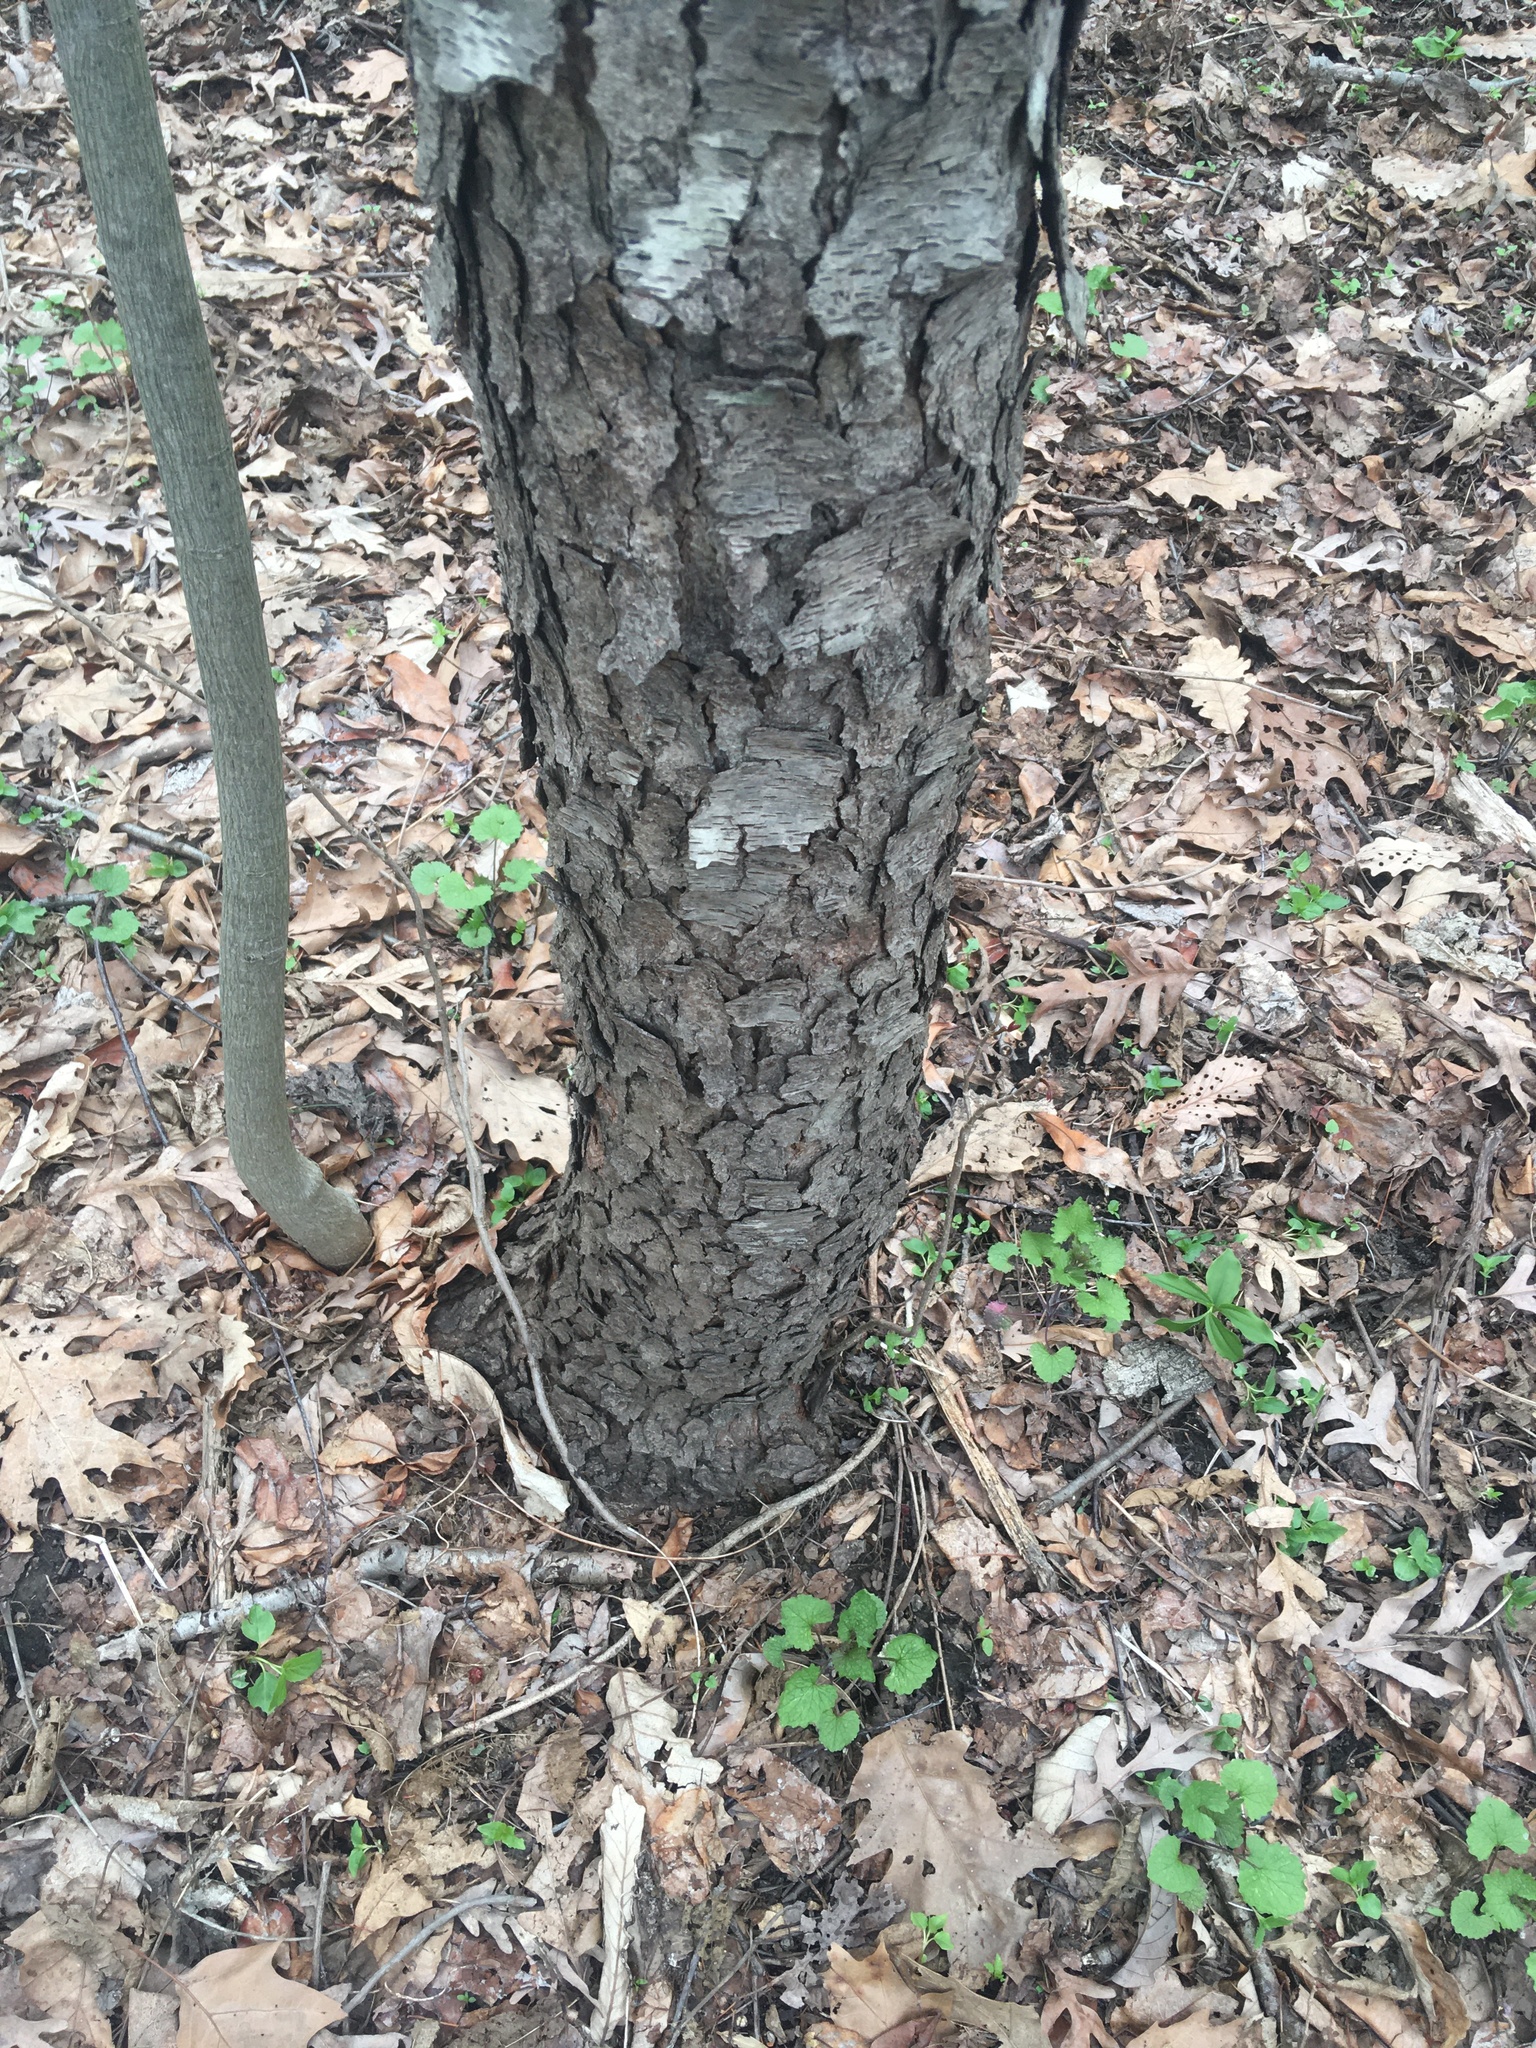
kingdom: Plantae
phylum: Tracheophyta
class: Magnoliopsida
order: Rosales
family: Rosaceae
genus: Prunus
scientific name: Prunus serotina
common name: Black cherry
